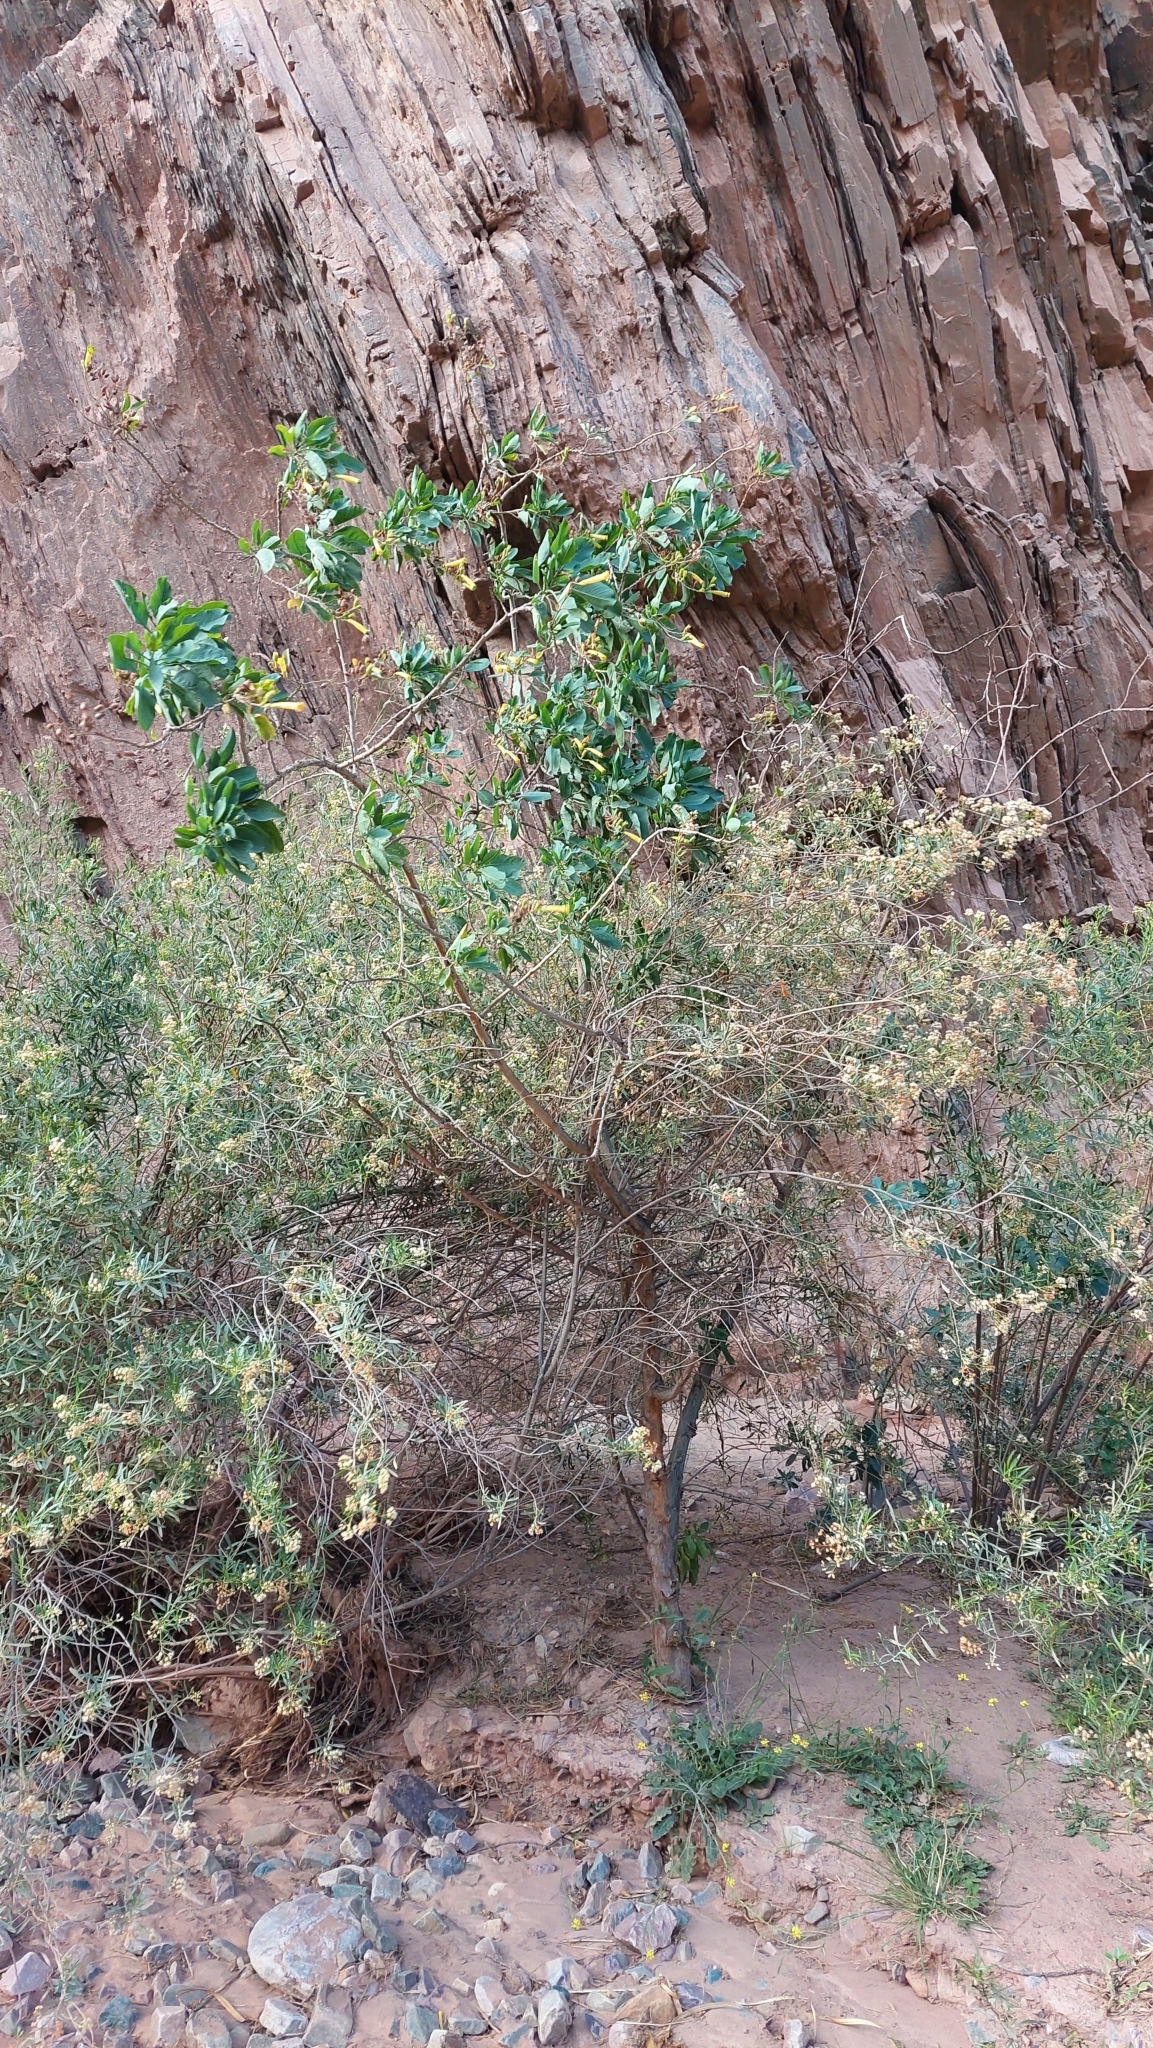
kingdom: Plantae
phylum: Tracheophyta
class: Magnoliopsida
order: Solanales
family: Solanaceae
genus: Nicotiana
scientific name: Nicotiana glauca
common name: Tree tobacco
